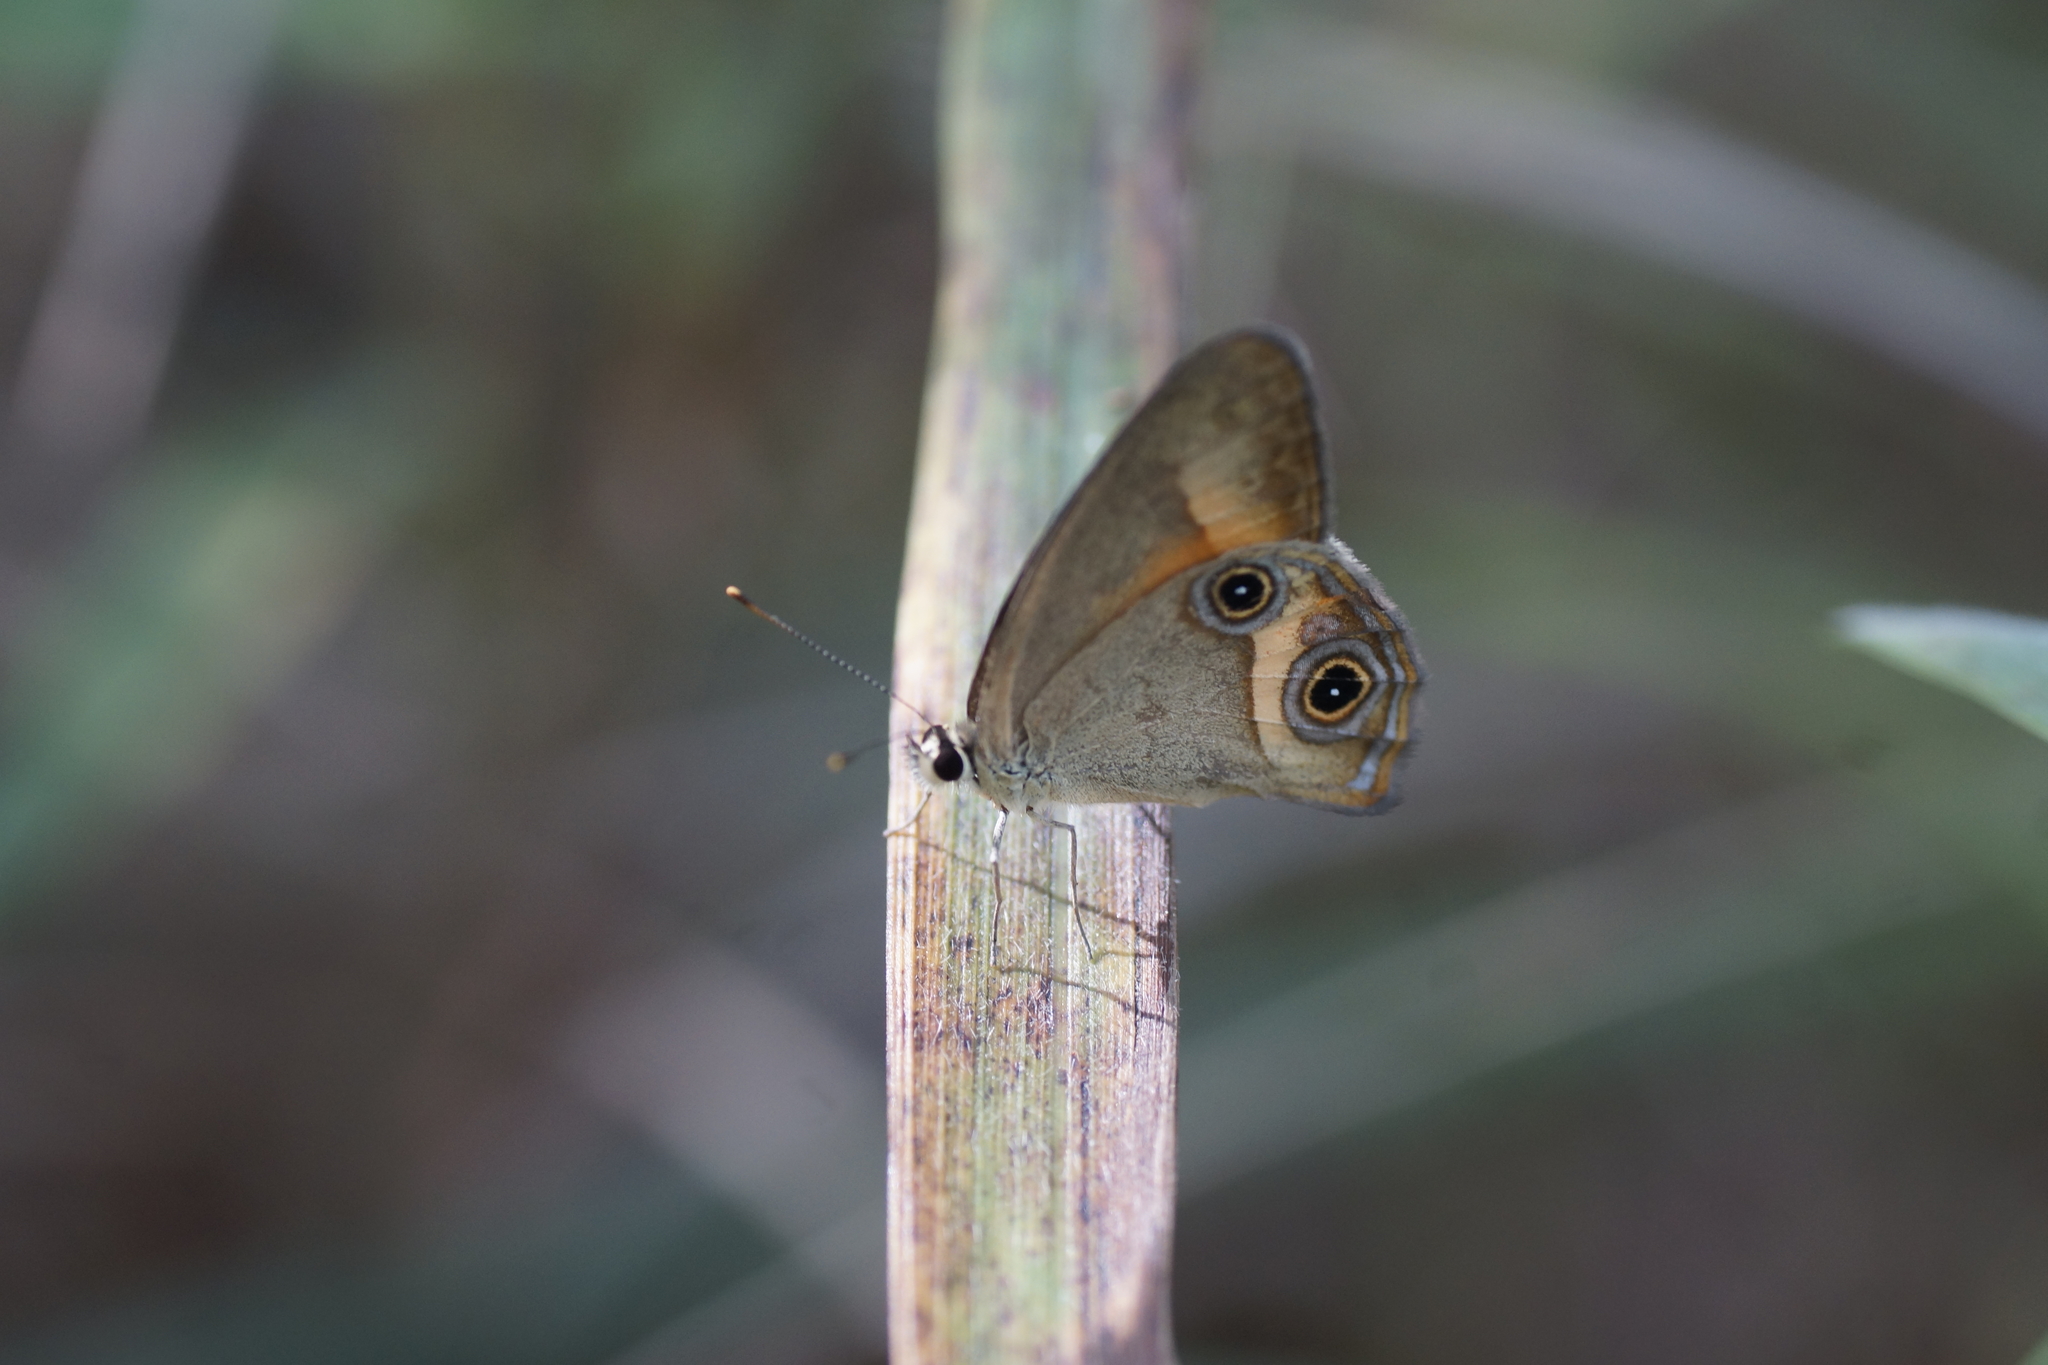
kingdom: Animalia
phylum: Arthropoda
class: Insecta
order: Lepidoptera
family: Nymphalidae
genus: Hypocysta
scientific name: Hypocysta irius
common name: Orange-streaked ringlet
